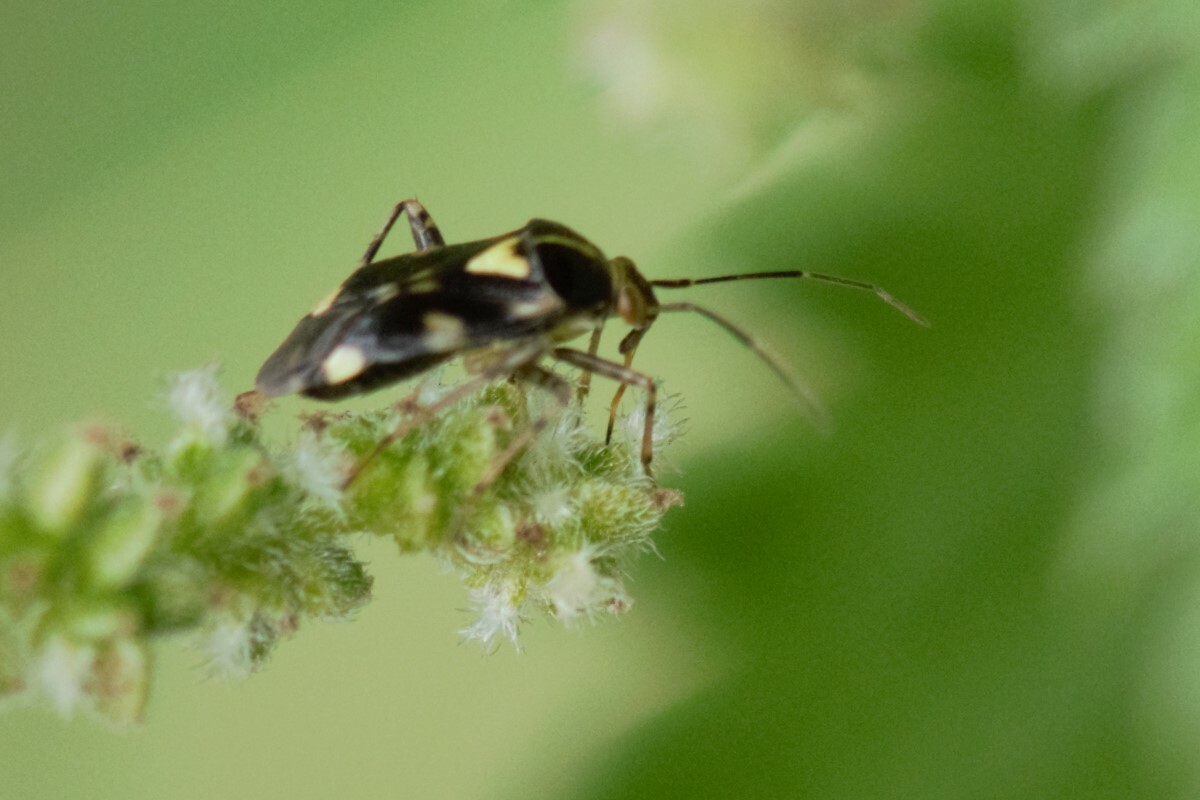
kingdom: Animalia
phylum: Arthropoda
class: Insecta
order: Hemiptera
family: Miridae
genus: Liocoris
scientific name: Liocoris tripustulatus
